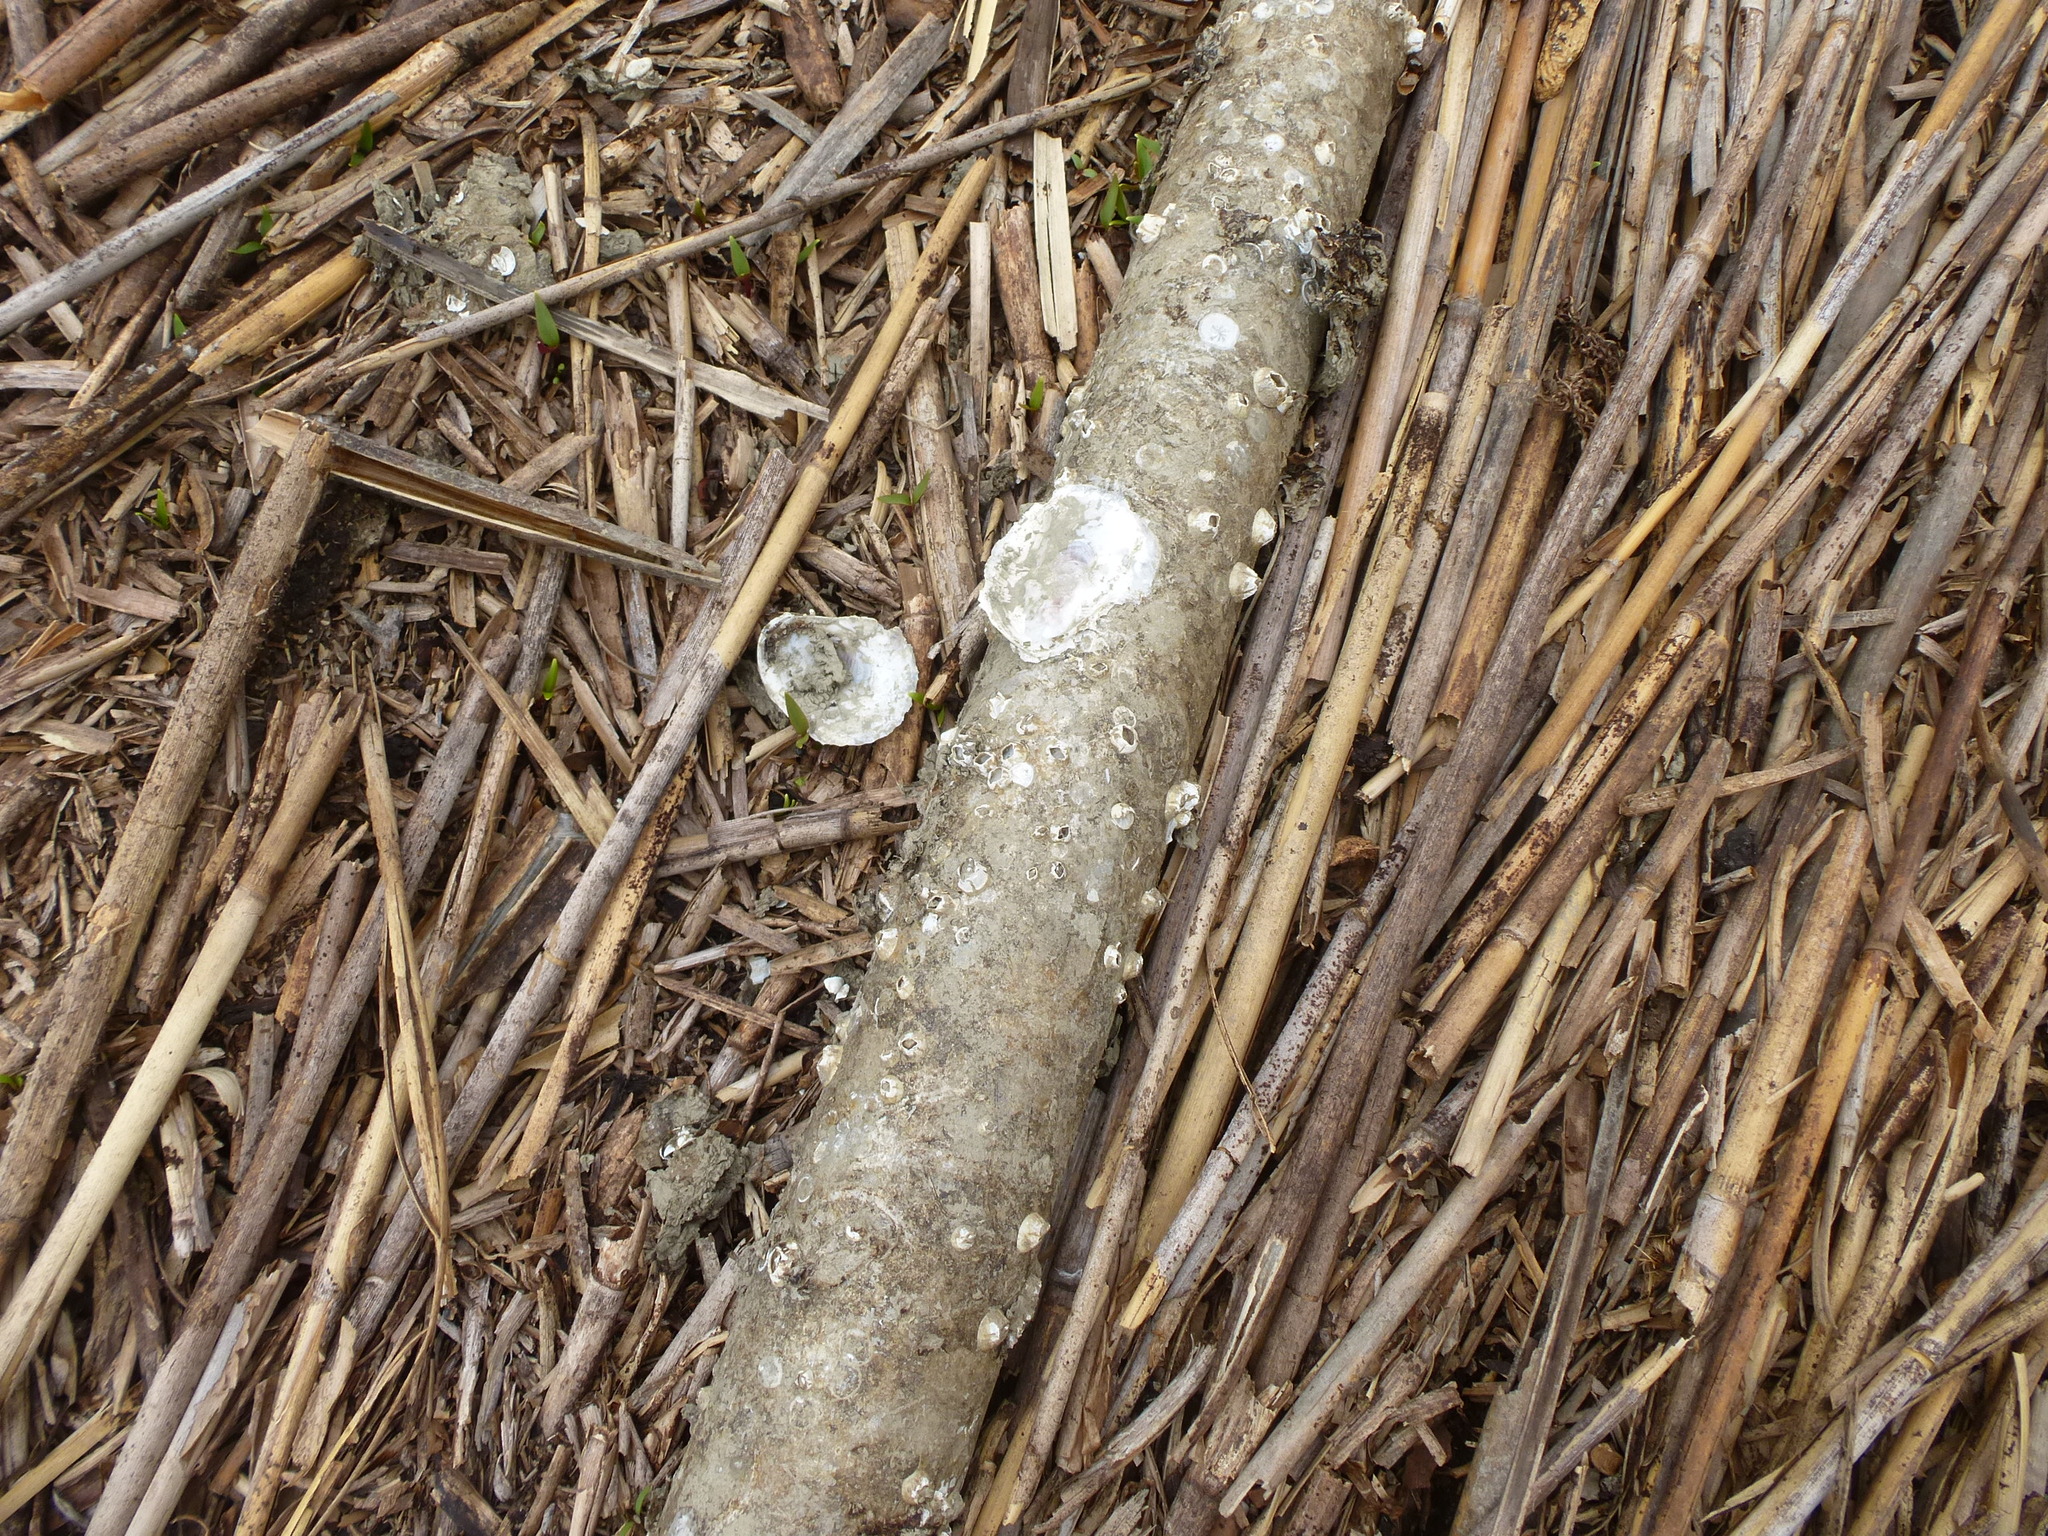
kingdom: Animalia
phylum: Mollusca
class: Bivalvia
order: Ostreida
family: Ostreidae
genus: Crassostrea
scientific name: Crassostrea virginica
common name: American oyster
